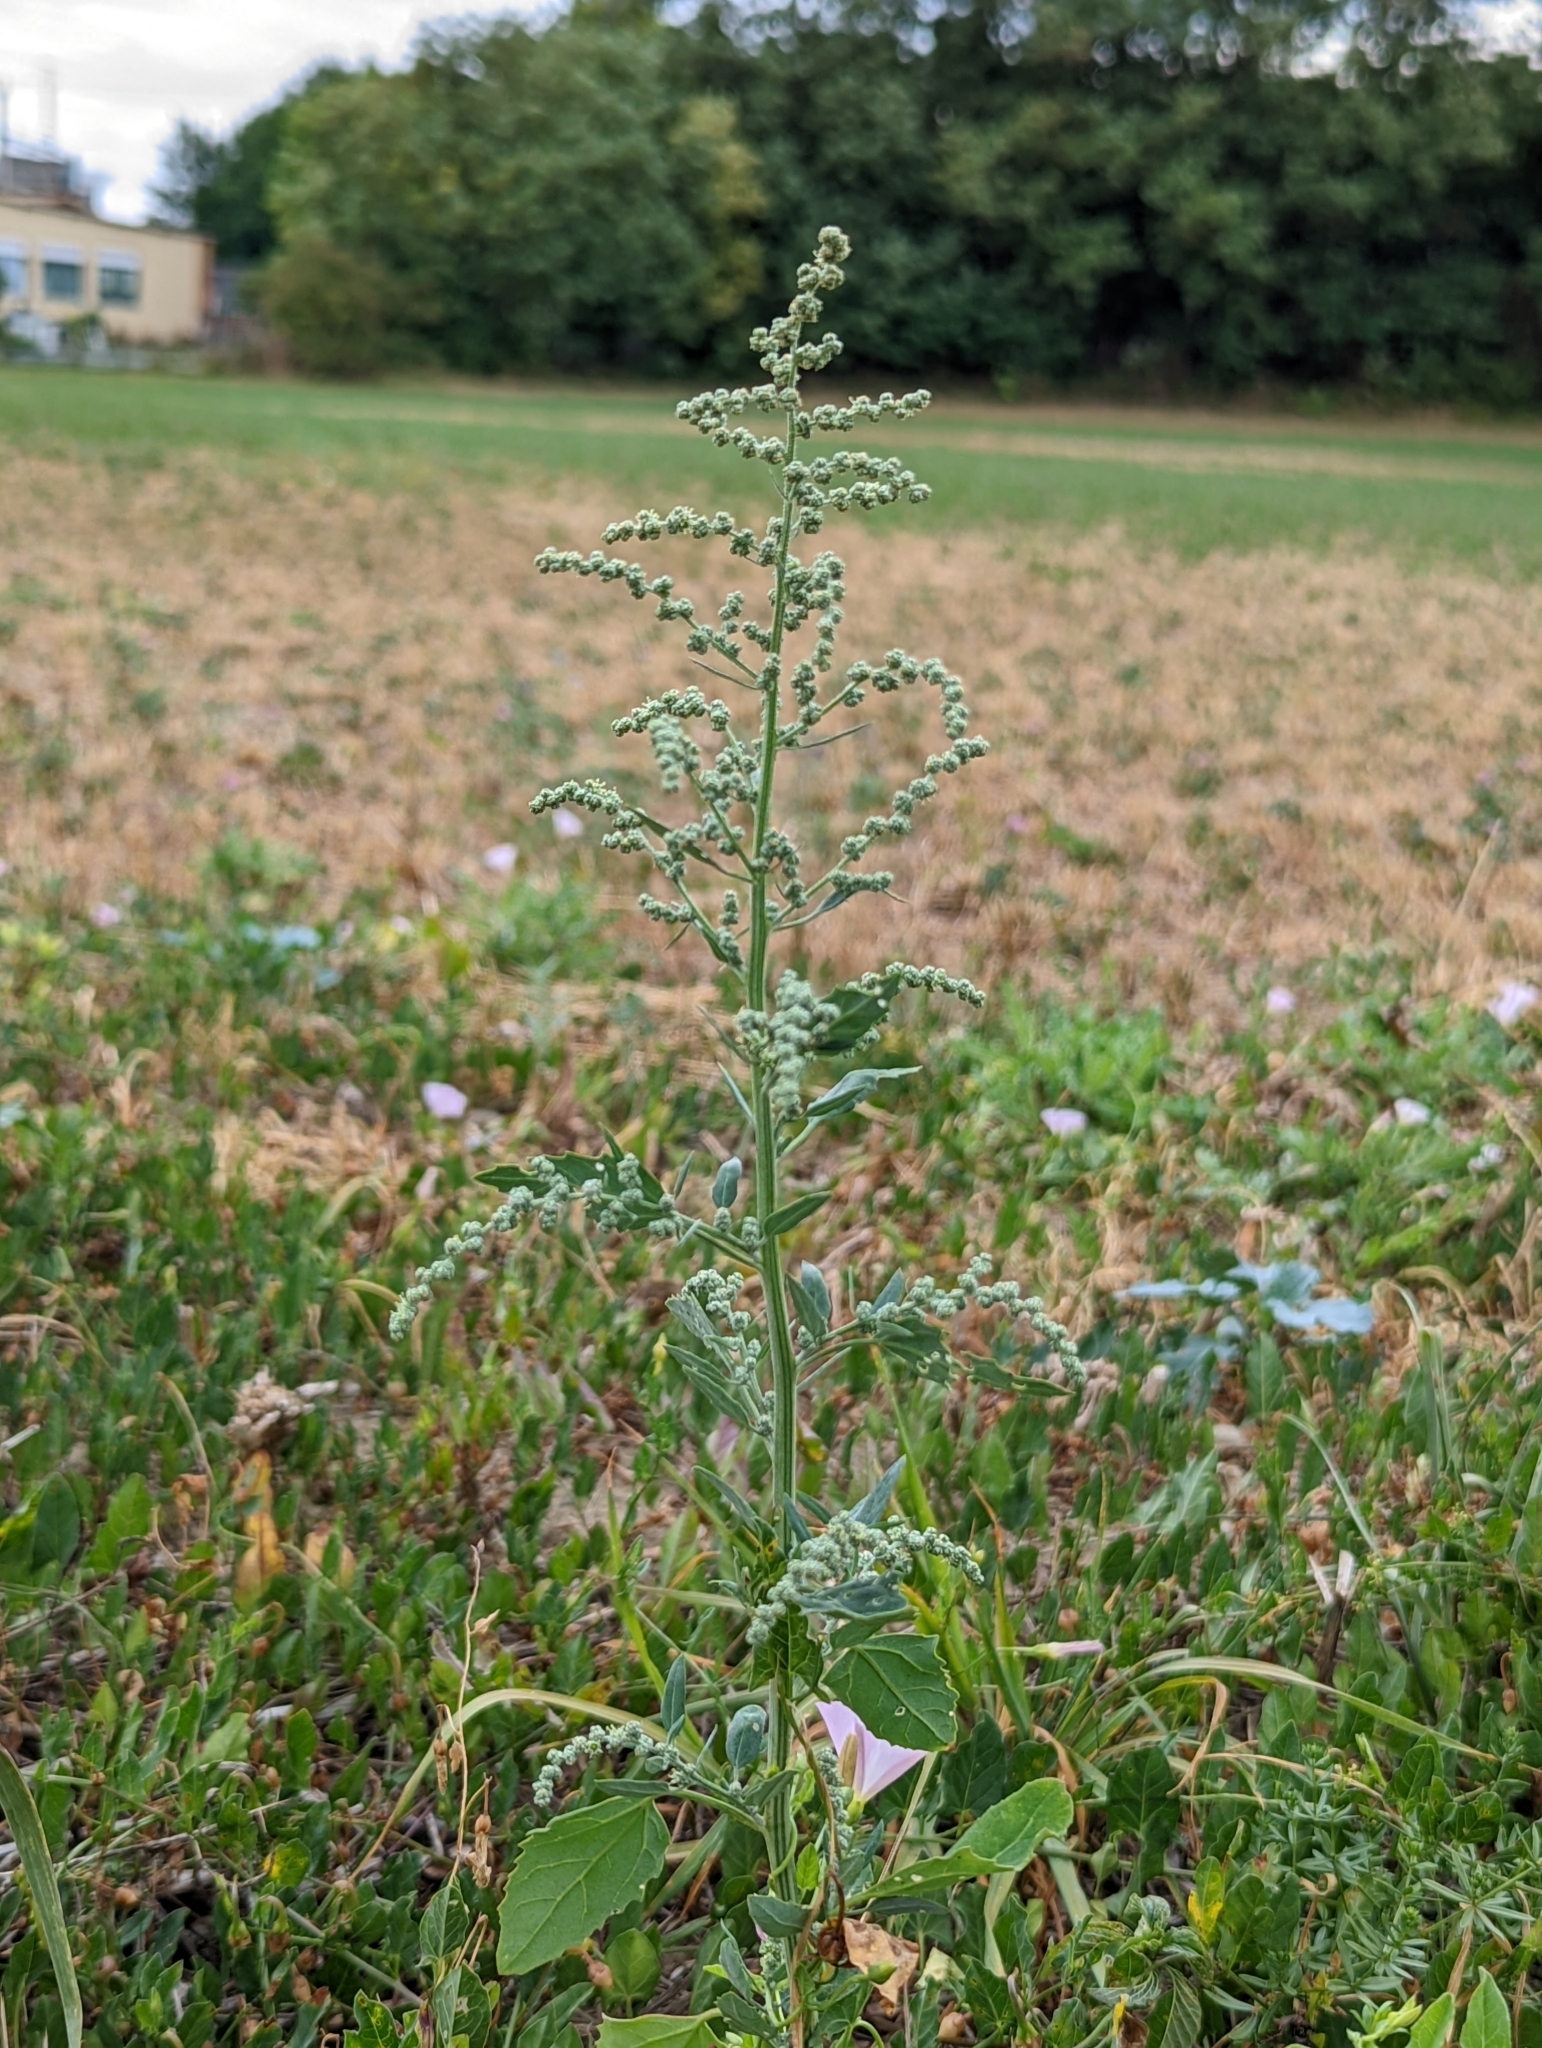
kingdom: Plantae
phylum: Tracheophyta
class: Magnoliopsida
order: Caryophyllales
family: Amaranthaceae
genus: Chenopodium
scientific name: Chenopodium album
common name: Fat-hen
